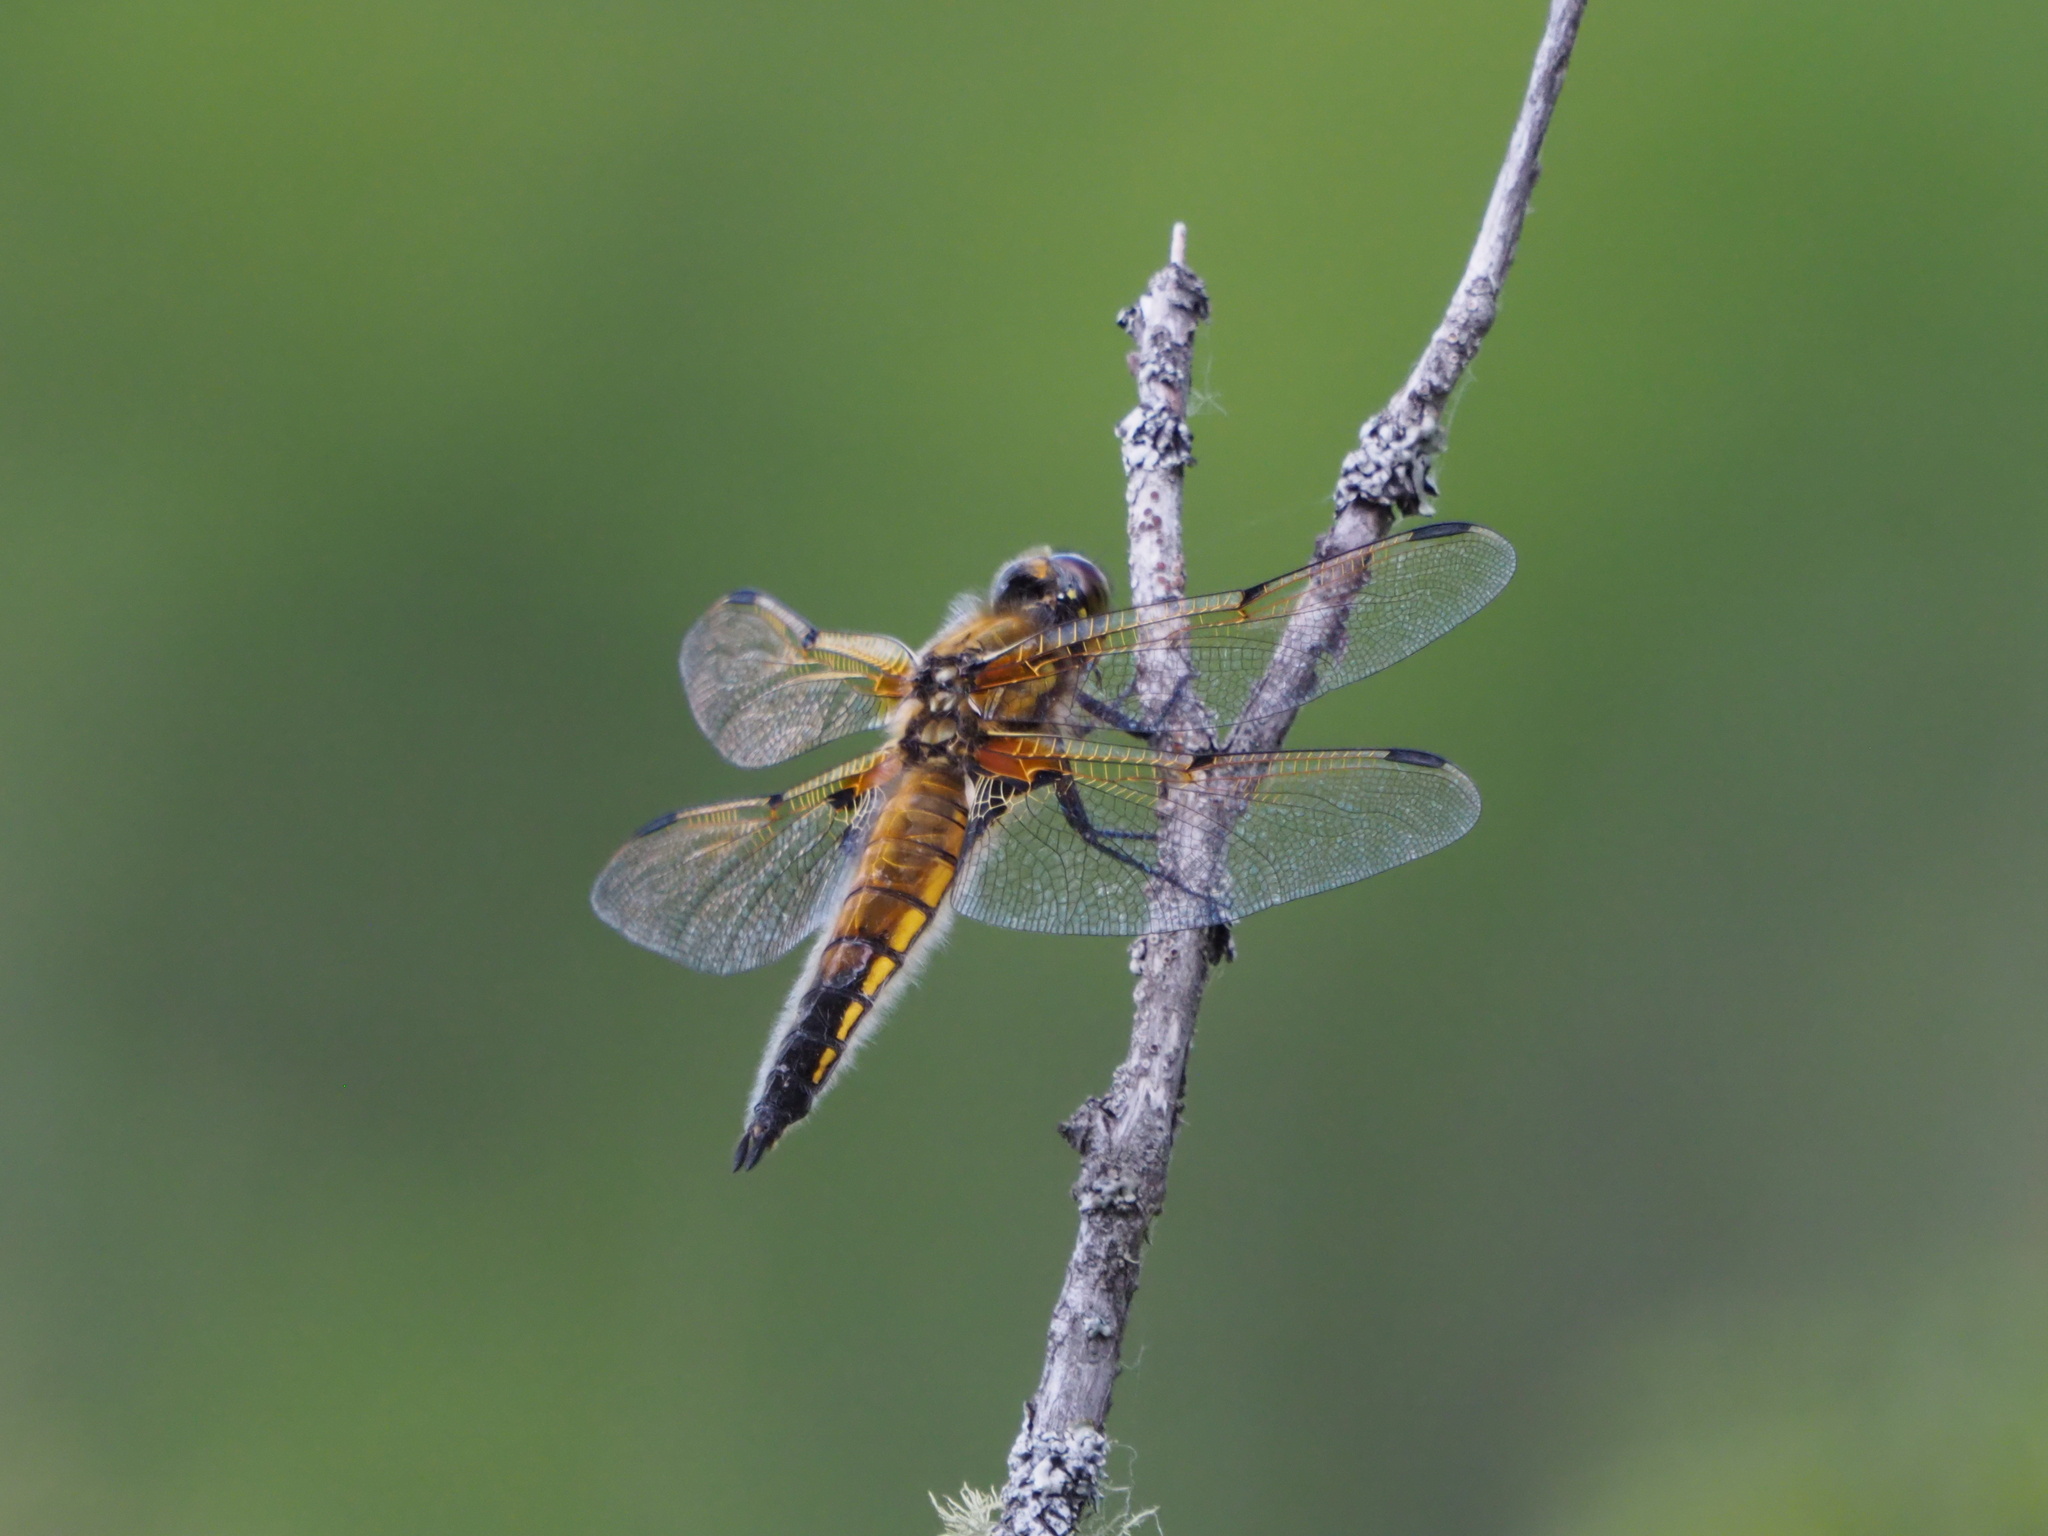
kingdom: Animalia
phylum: Arthropoda
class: Insecta
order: Odonata
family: Libellulidae
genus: Libellula
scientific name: Libellula quadrimaculata
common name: Four-spotted chaser
